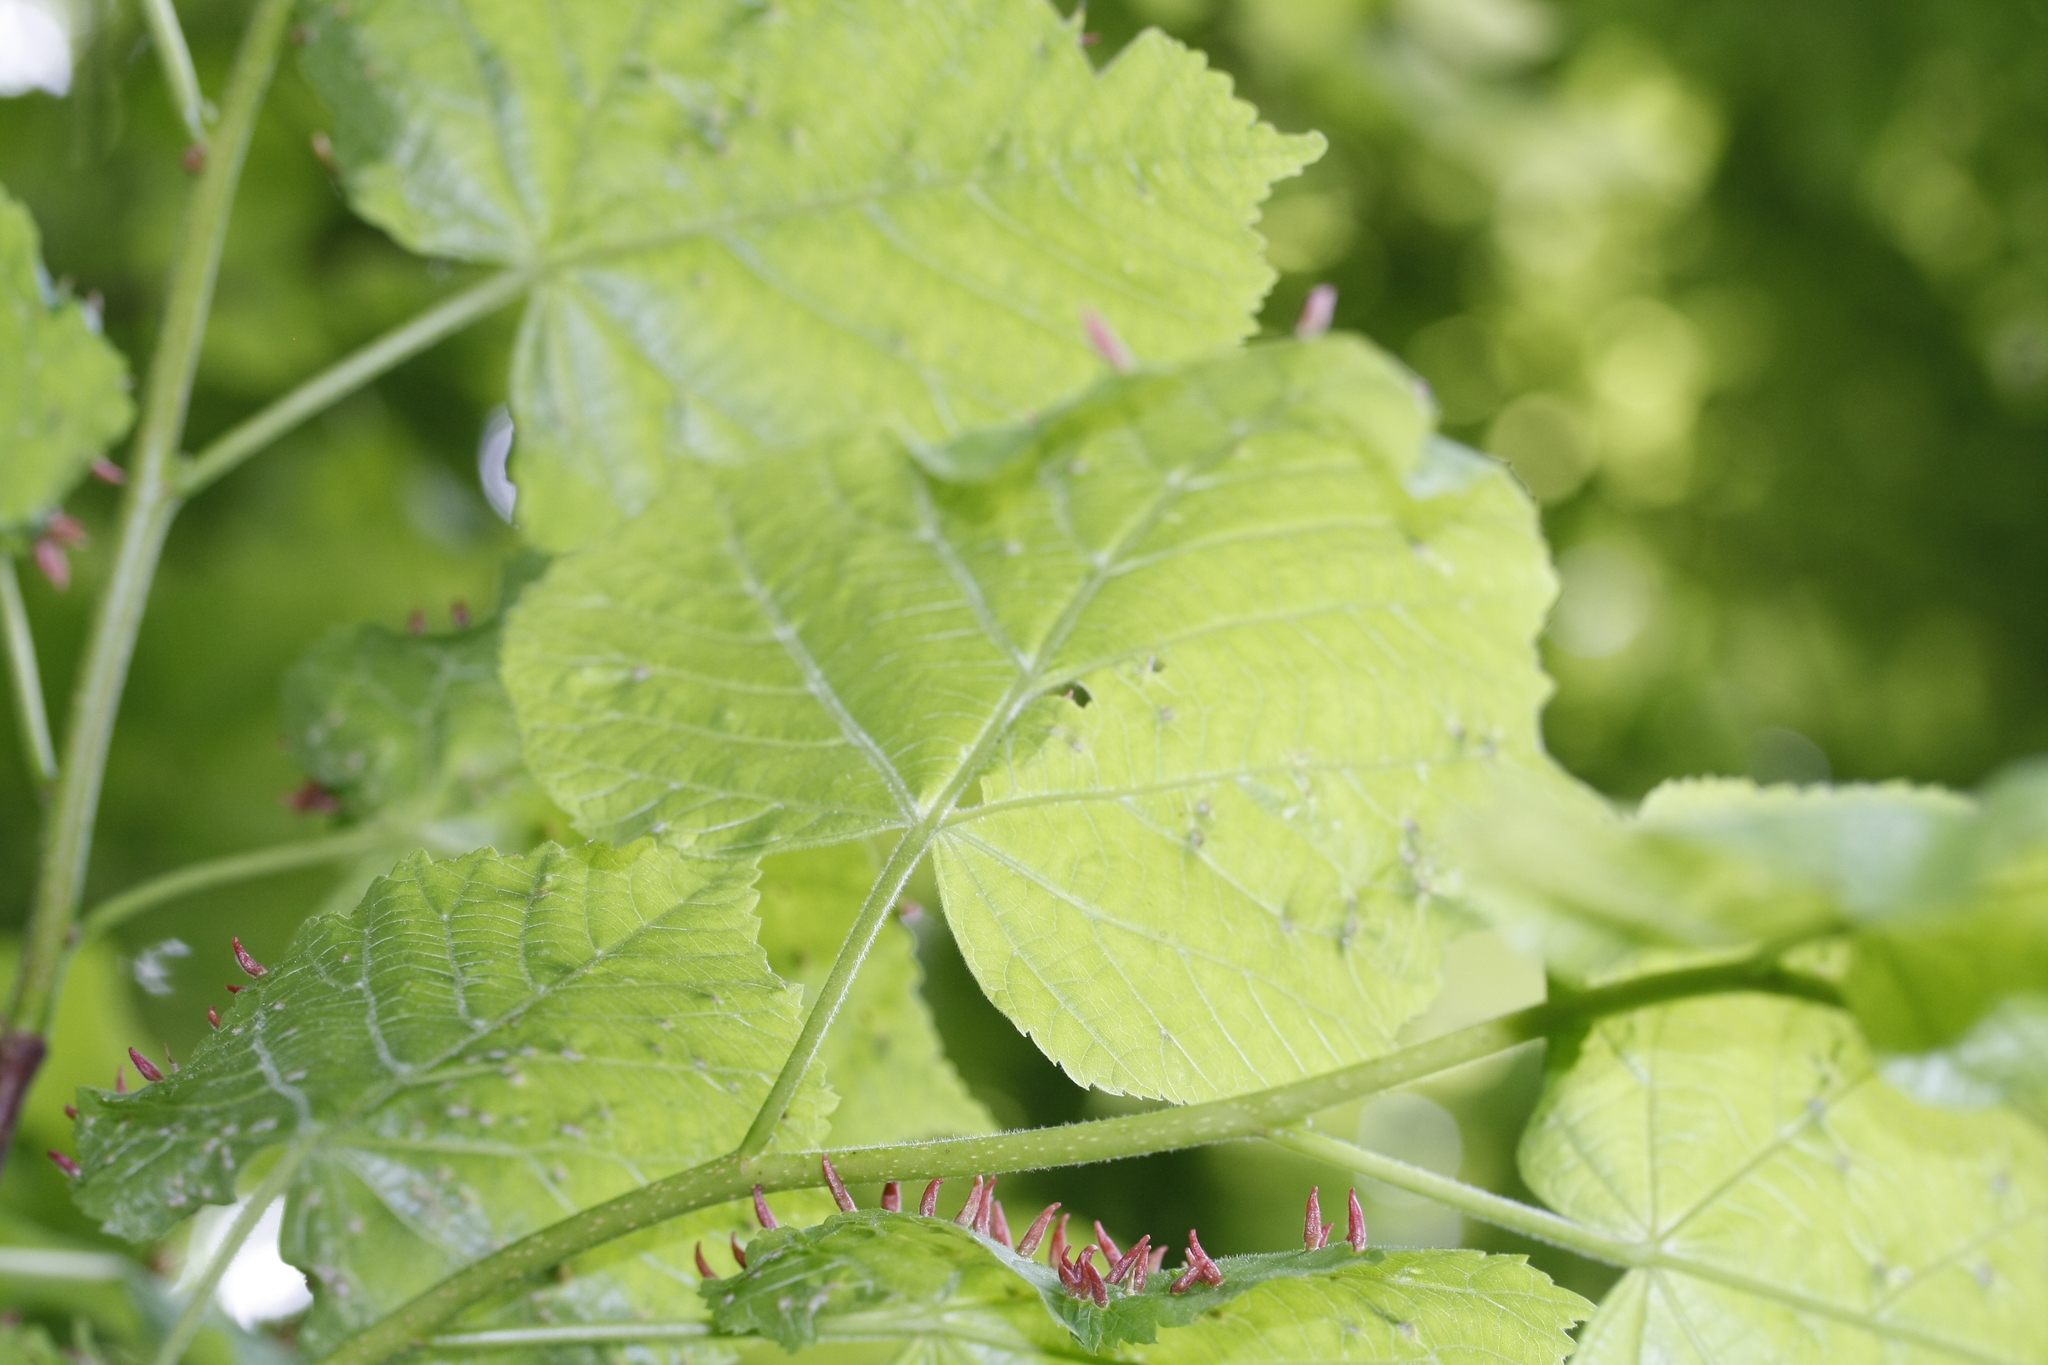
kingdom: Animalia
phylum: Arthropoda
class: Arachnida
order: Trombidiformes
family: Eriophyidae
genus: Eriophyes
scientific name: Eriophyes tiliae
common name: Red nail gall mite
